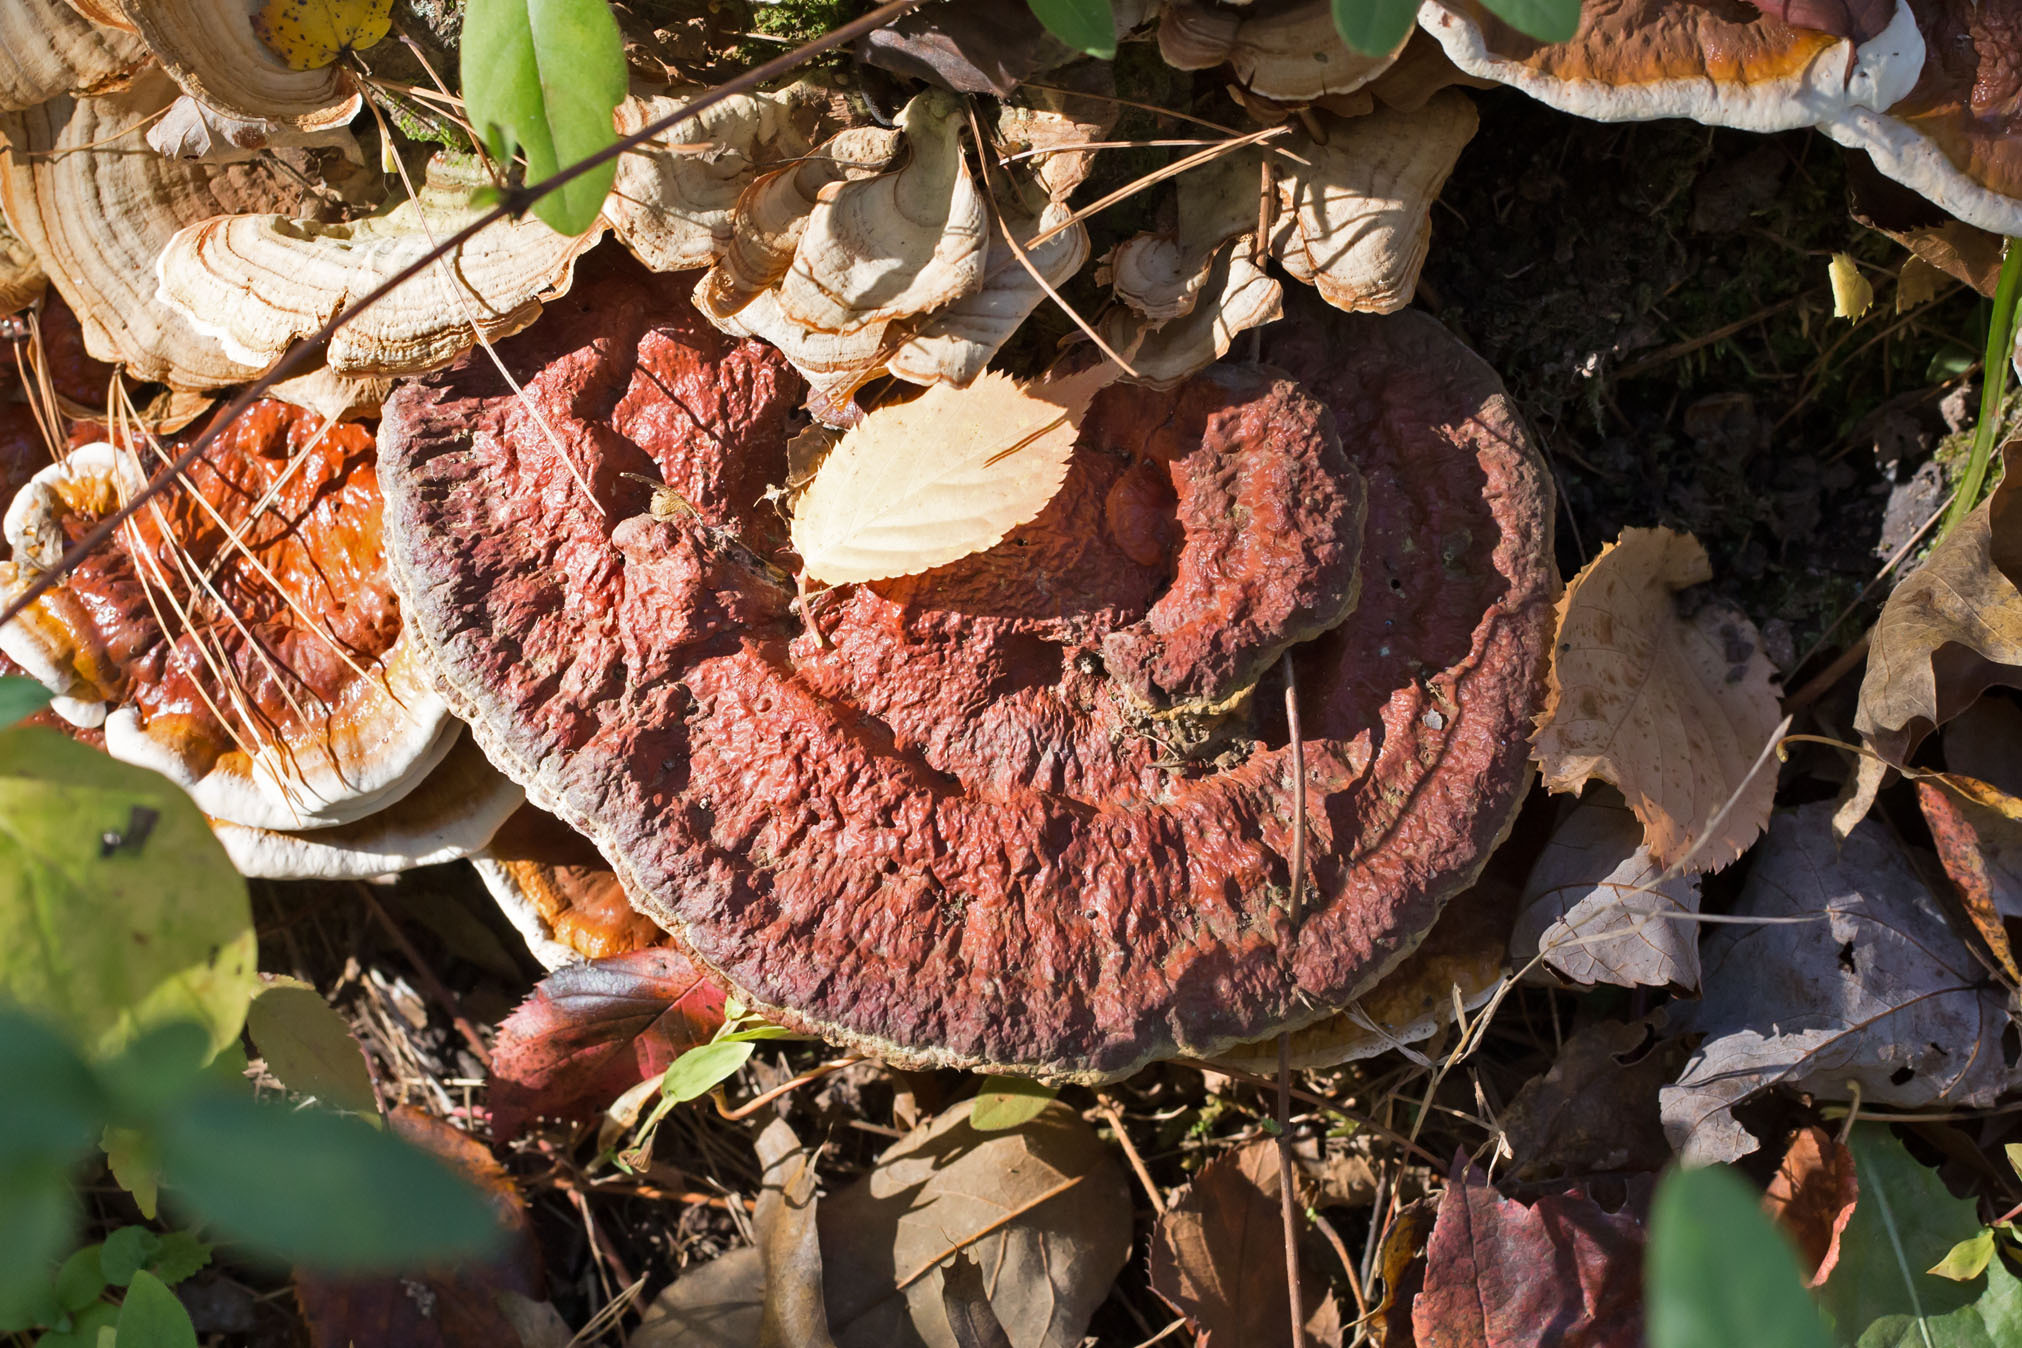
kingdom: Fungi
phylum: Basidiomycota
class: Agaricomycetes
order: Polyporales
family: Polyporaceae
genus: Ganoderma
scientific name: Ganoderma resinaceum
